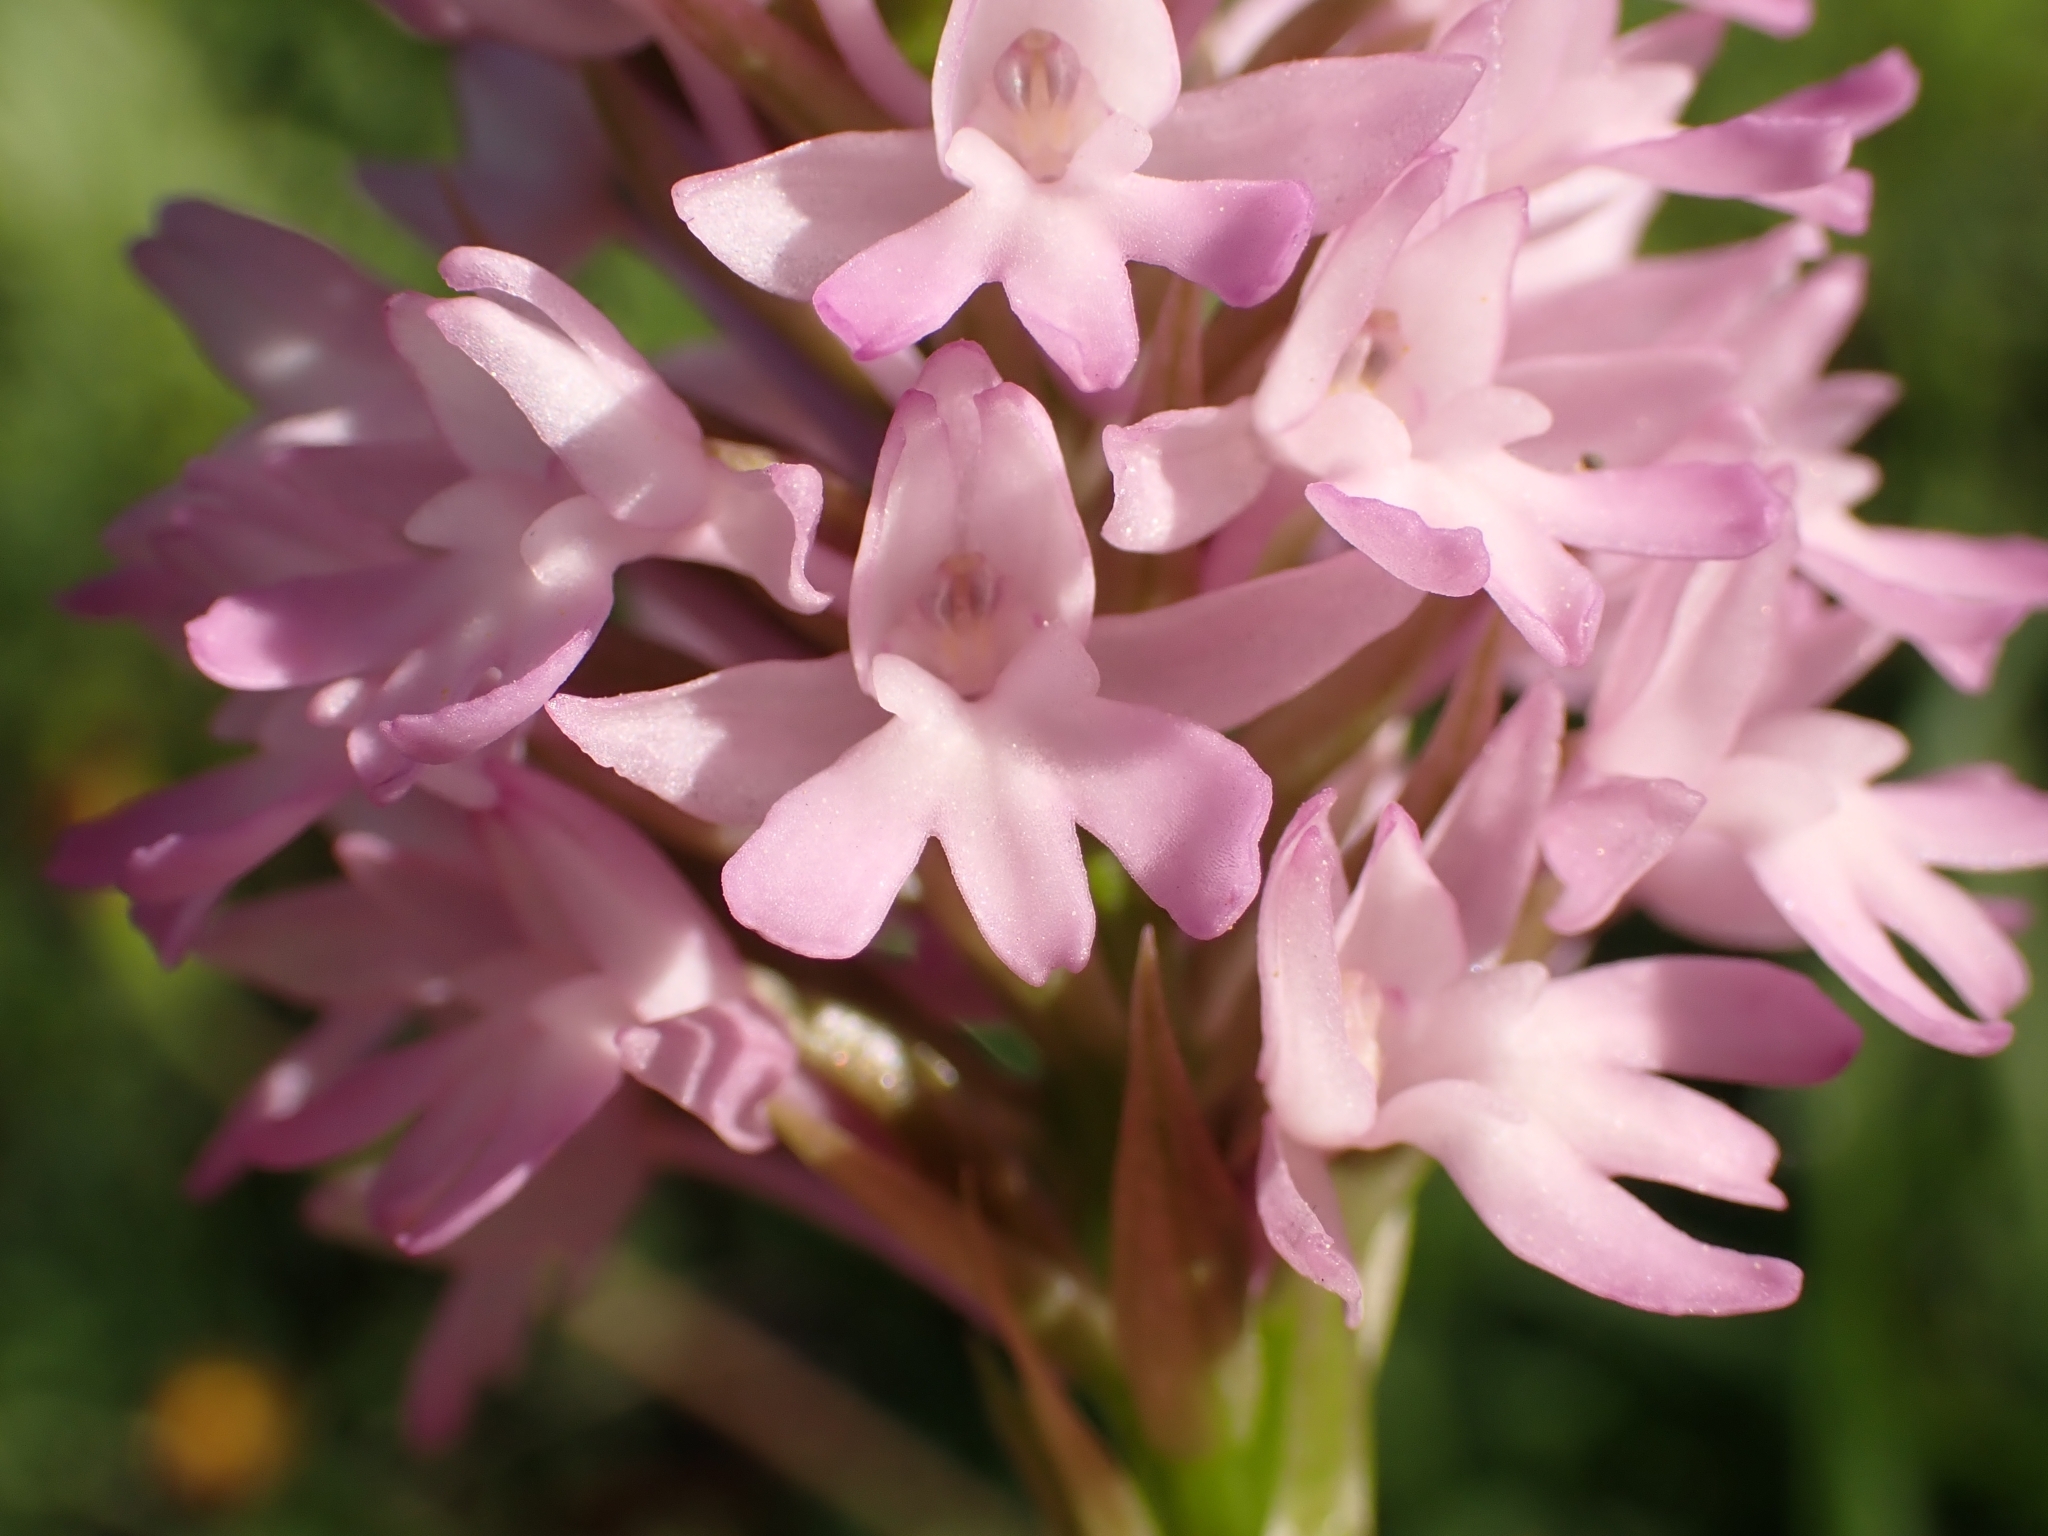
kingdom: Plantae
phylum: Tracheophyta
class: Liliopsida
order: Asparagales
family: Orchidaceae
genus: Anacamptis
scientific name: Anacamptis pyramidalis
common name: Pyramidal orchid
